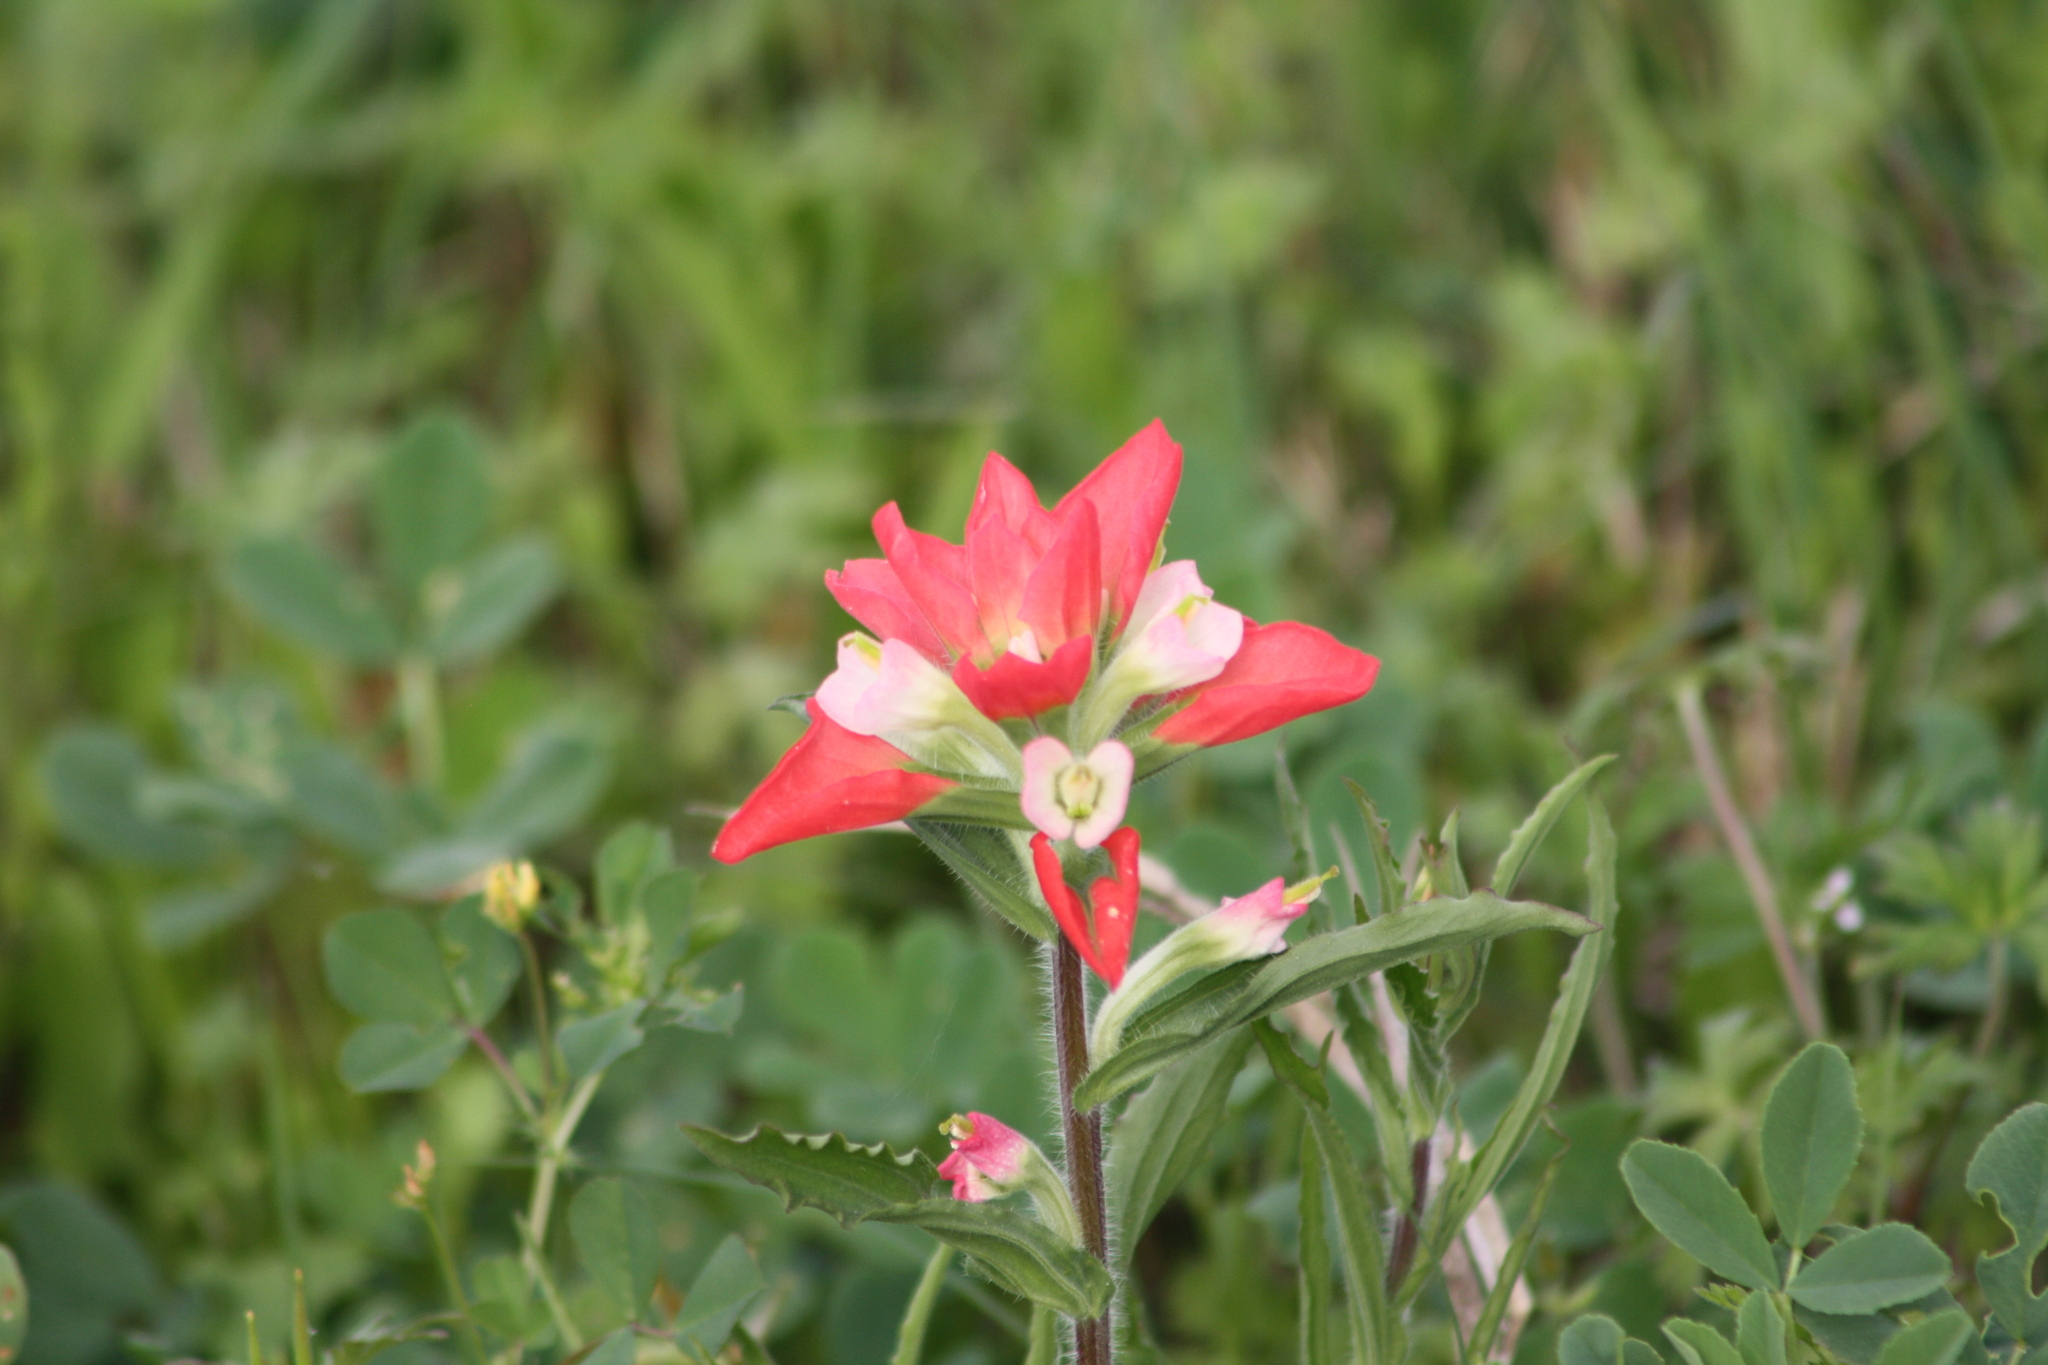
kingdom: Plantae
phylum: Tracheophyta
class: Magnoliopsida
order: Lamiales
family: Orobanchaceae
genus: Castilleja
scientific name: Castilleja indivisa
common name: Texas paintbrush
